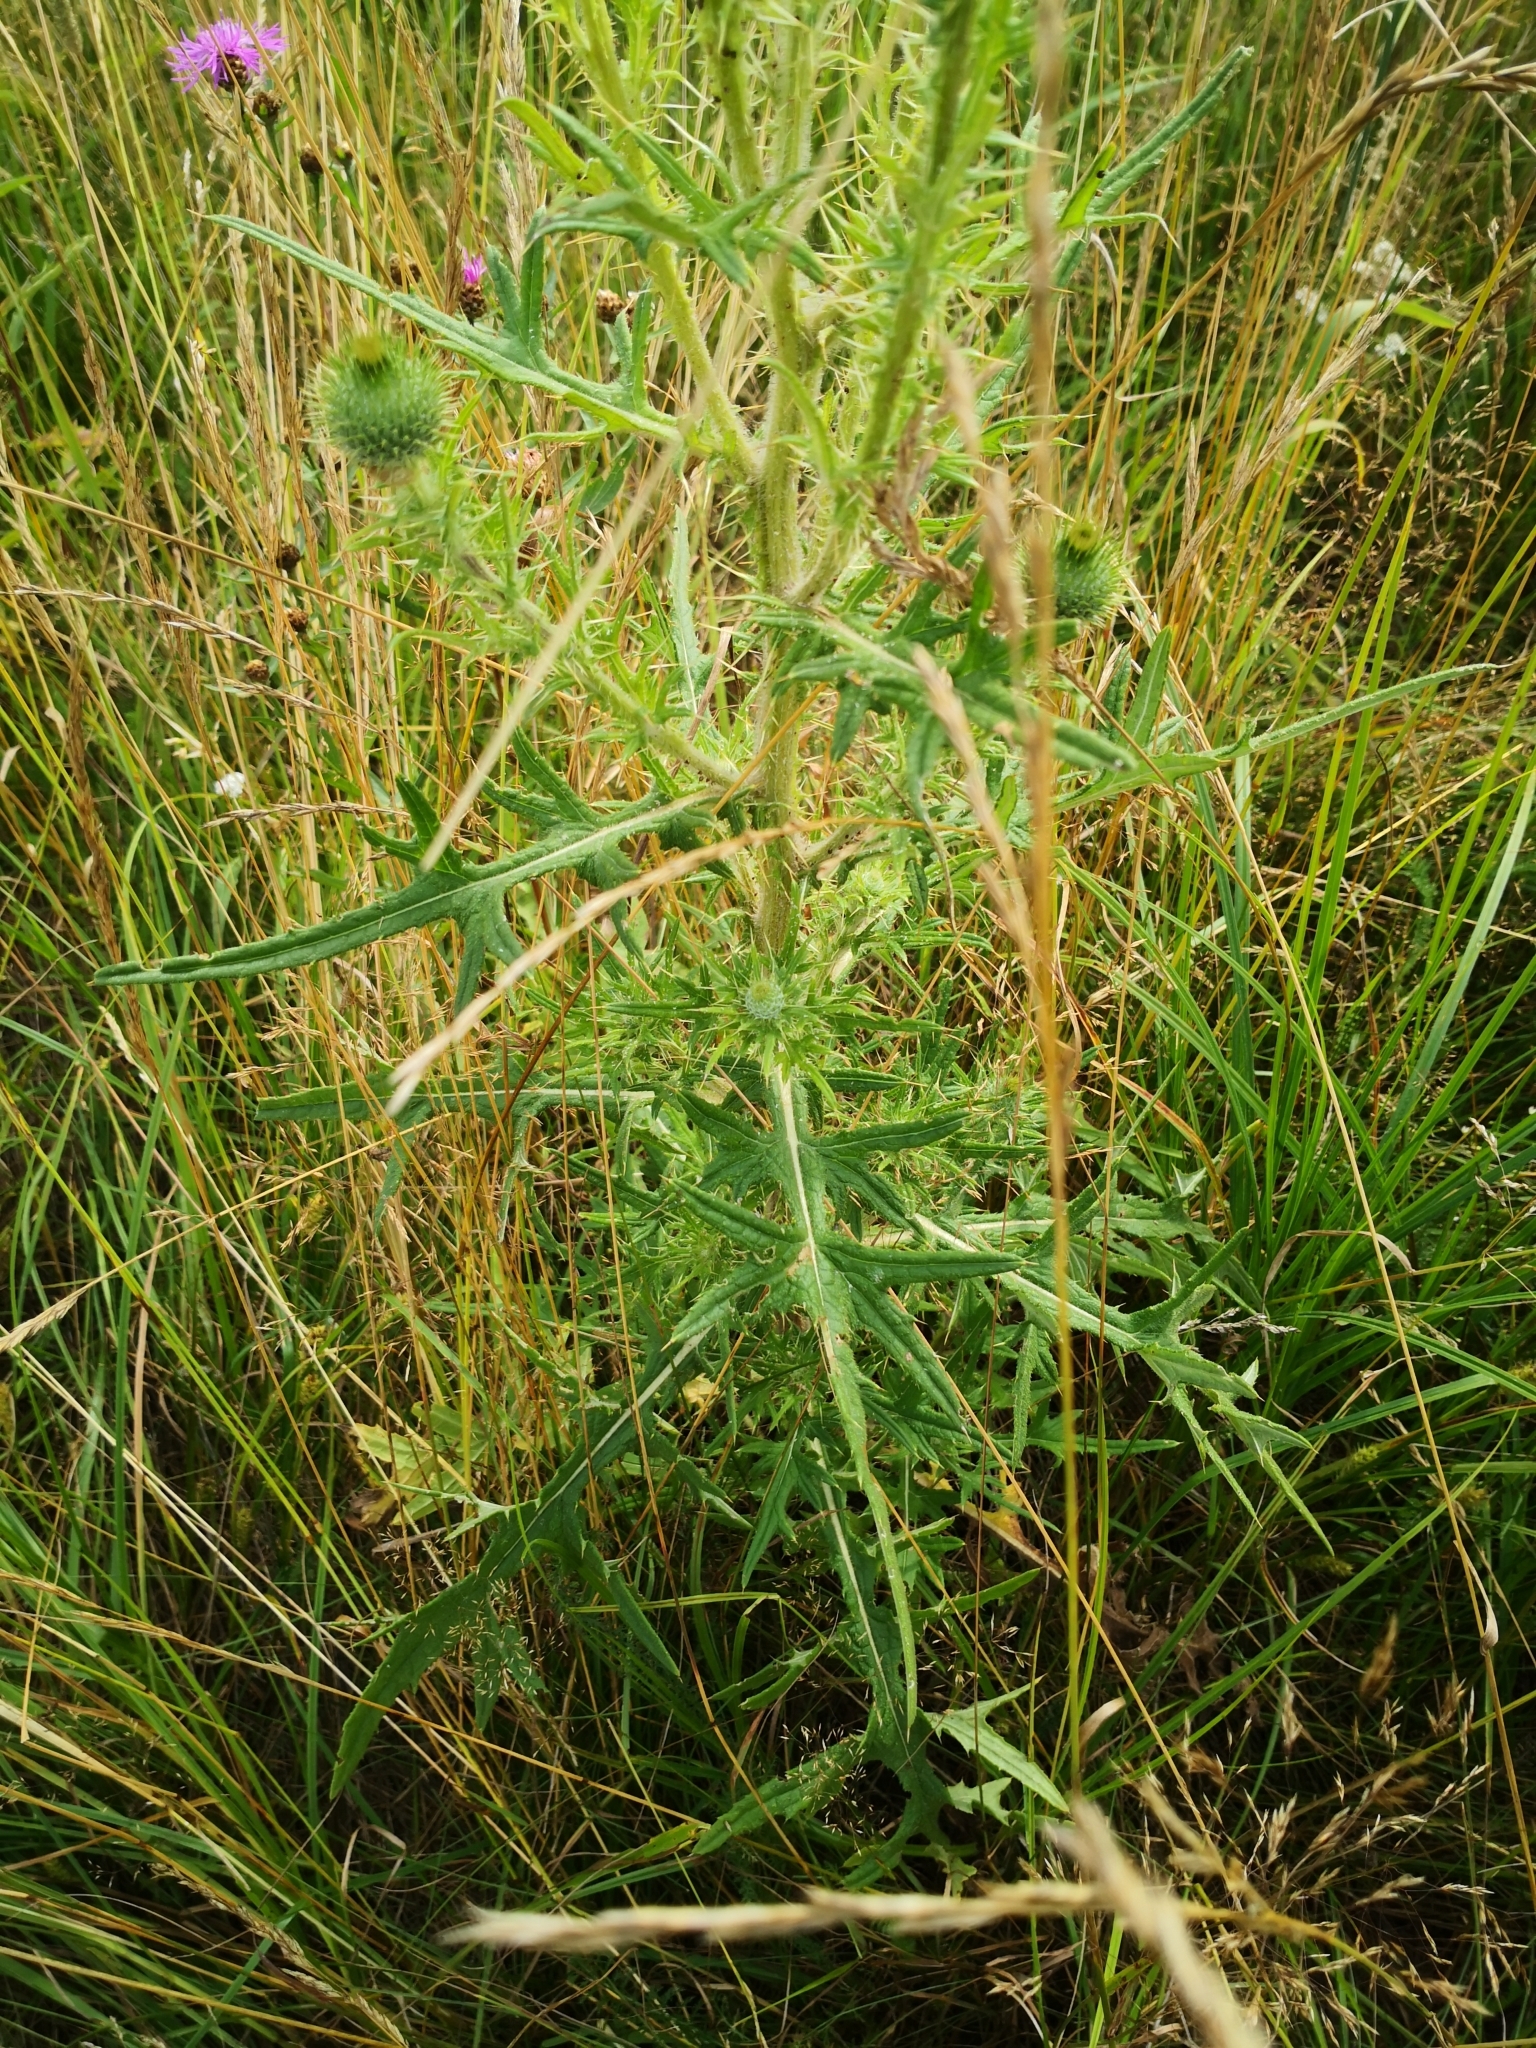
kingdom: Plantae
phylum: Tracheophyta
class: Magnoliopsida
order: Asterales
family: Asteraceae
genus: Cirsium
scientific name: Cirsium vulgare
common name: Bull thistle
